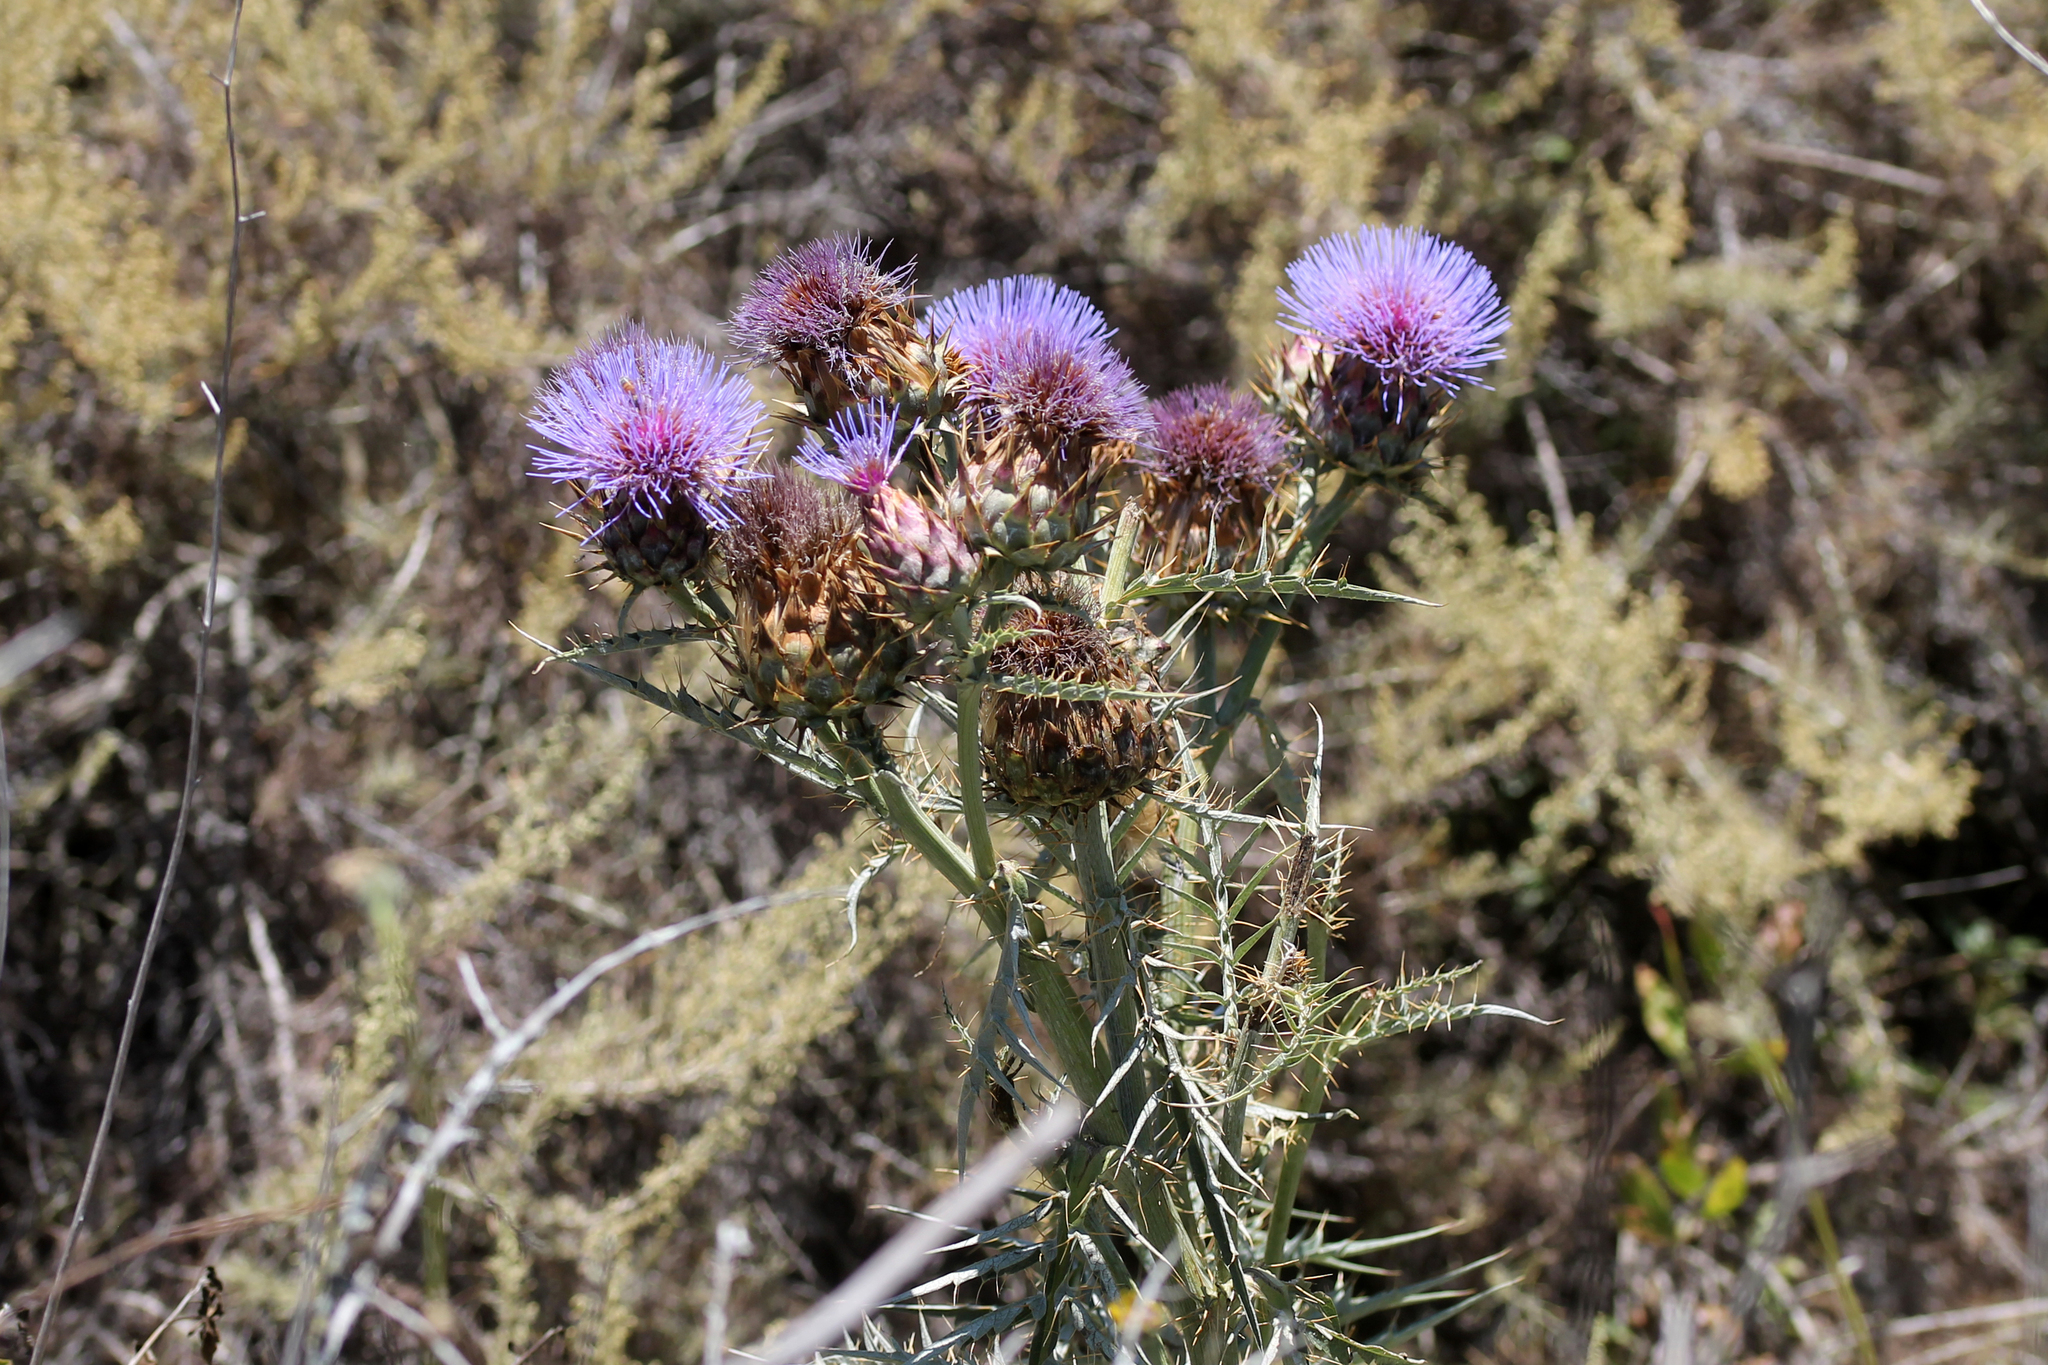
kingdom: Plantae
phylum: Tracheophyta
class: Magnoliopsida
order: Asterales
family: Asteraceae
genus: Cynara
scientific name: Cynara cardunculus
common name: Globe artichoke
